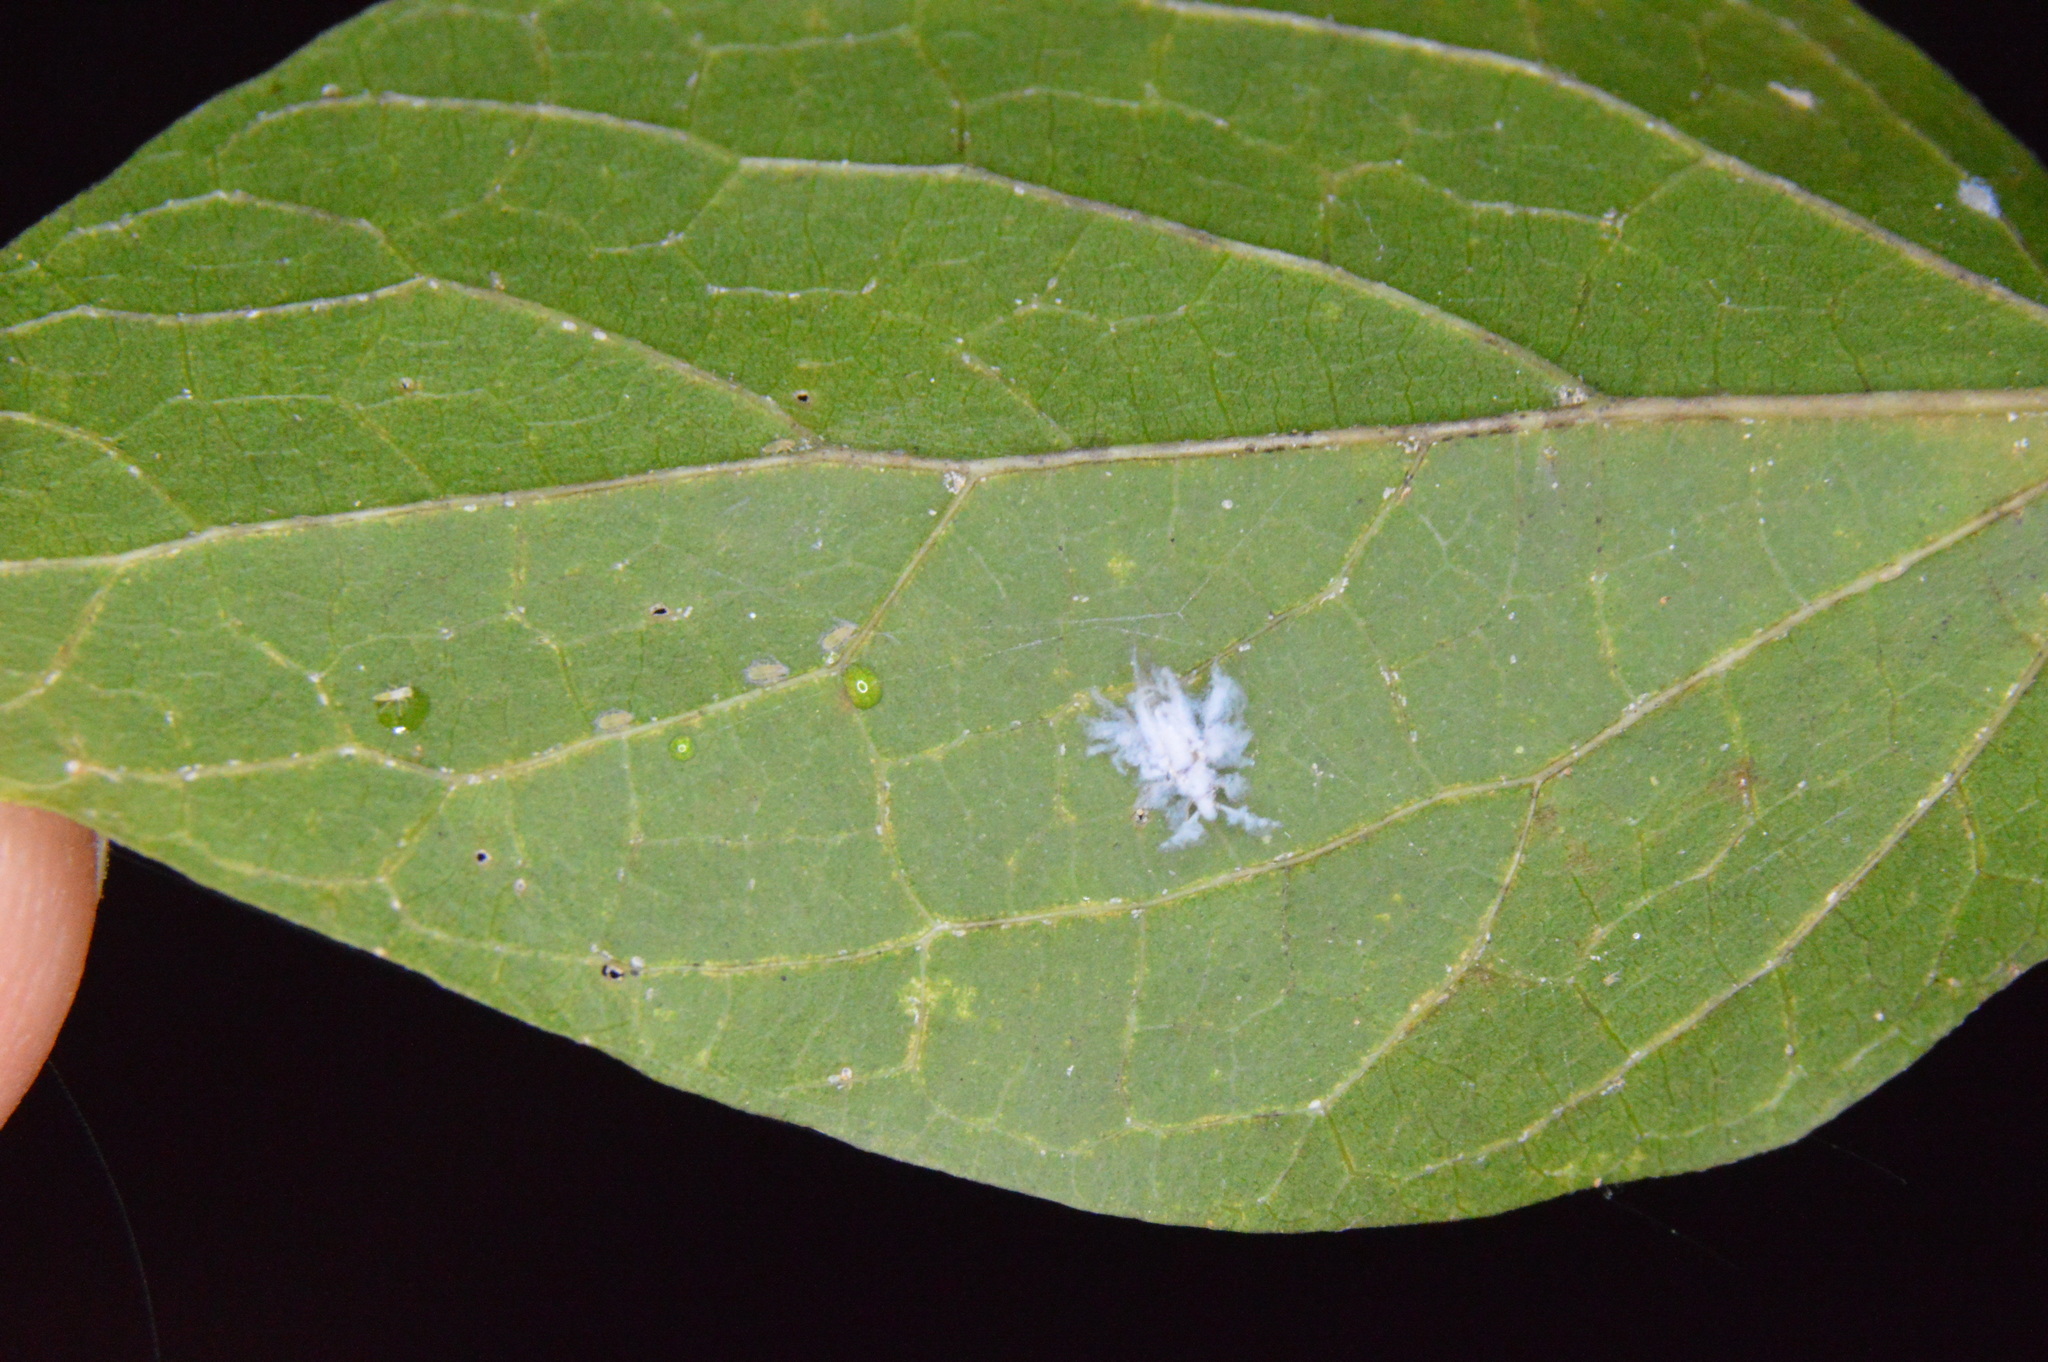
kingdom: Animalia
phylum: Arthropoda
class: Insecta
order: Hemiptera
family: Aphididae
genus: Shivaphis
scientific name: Shivaphis celti
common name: Asian wooly hackberry aphid
